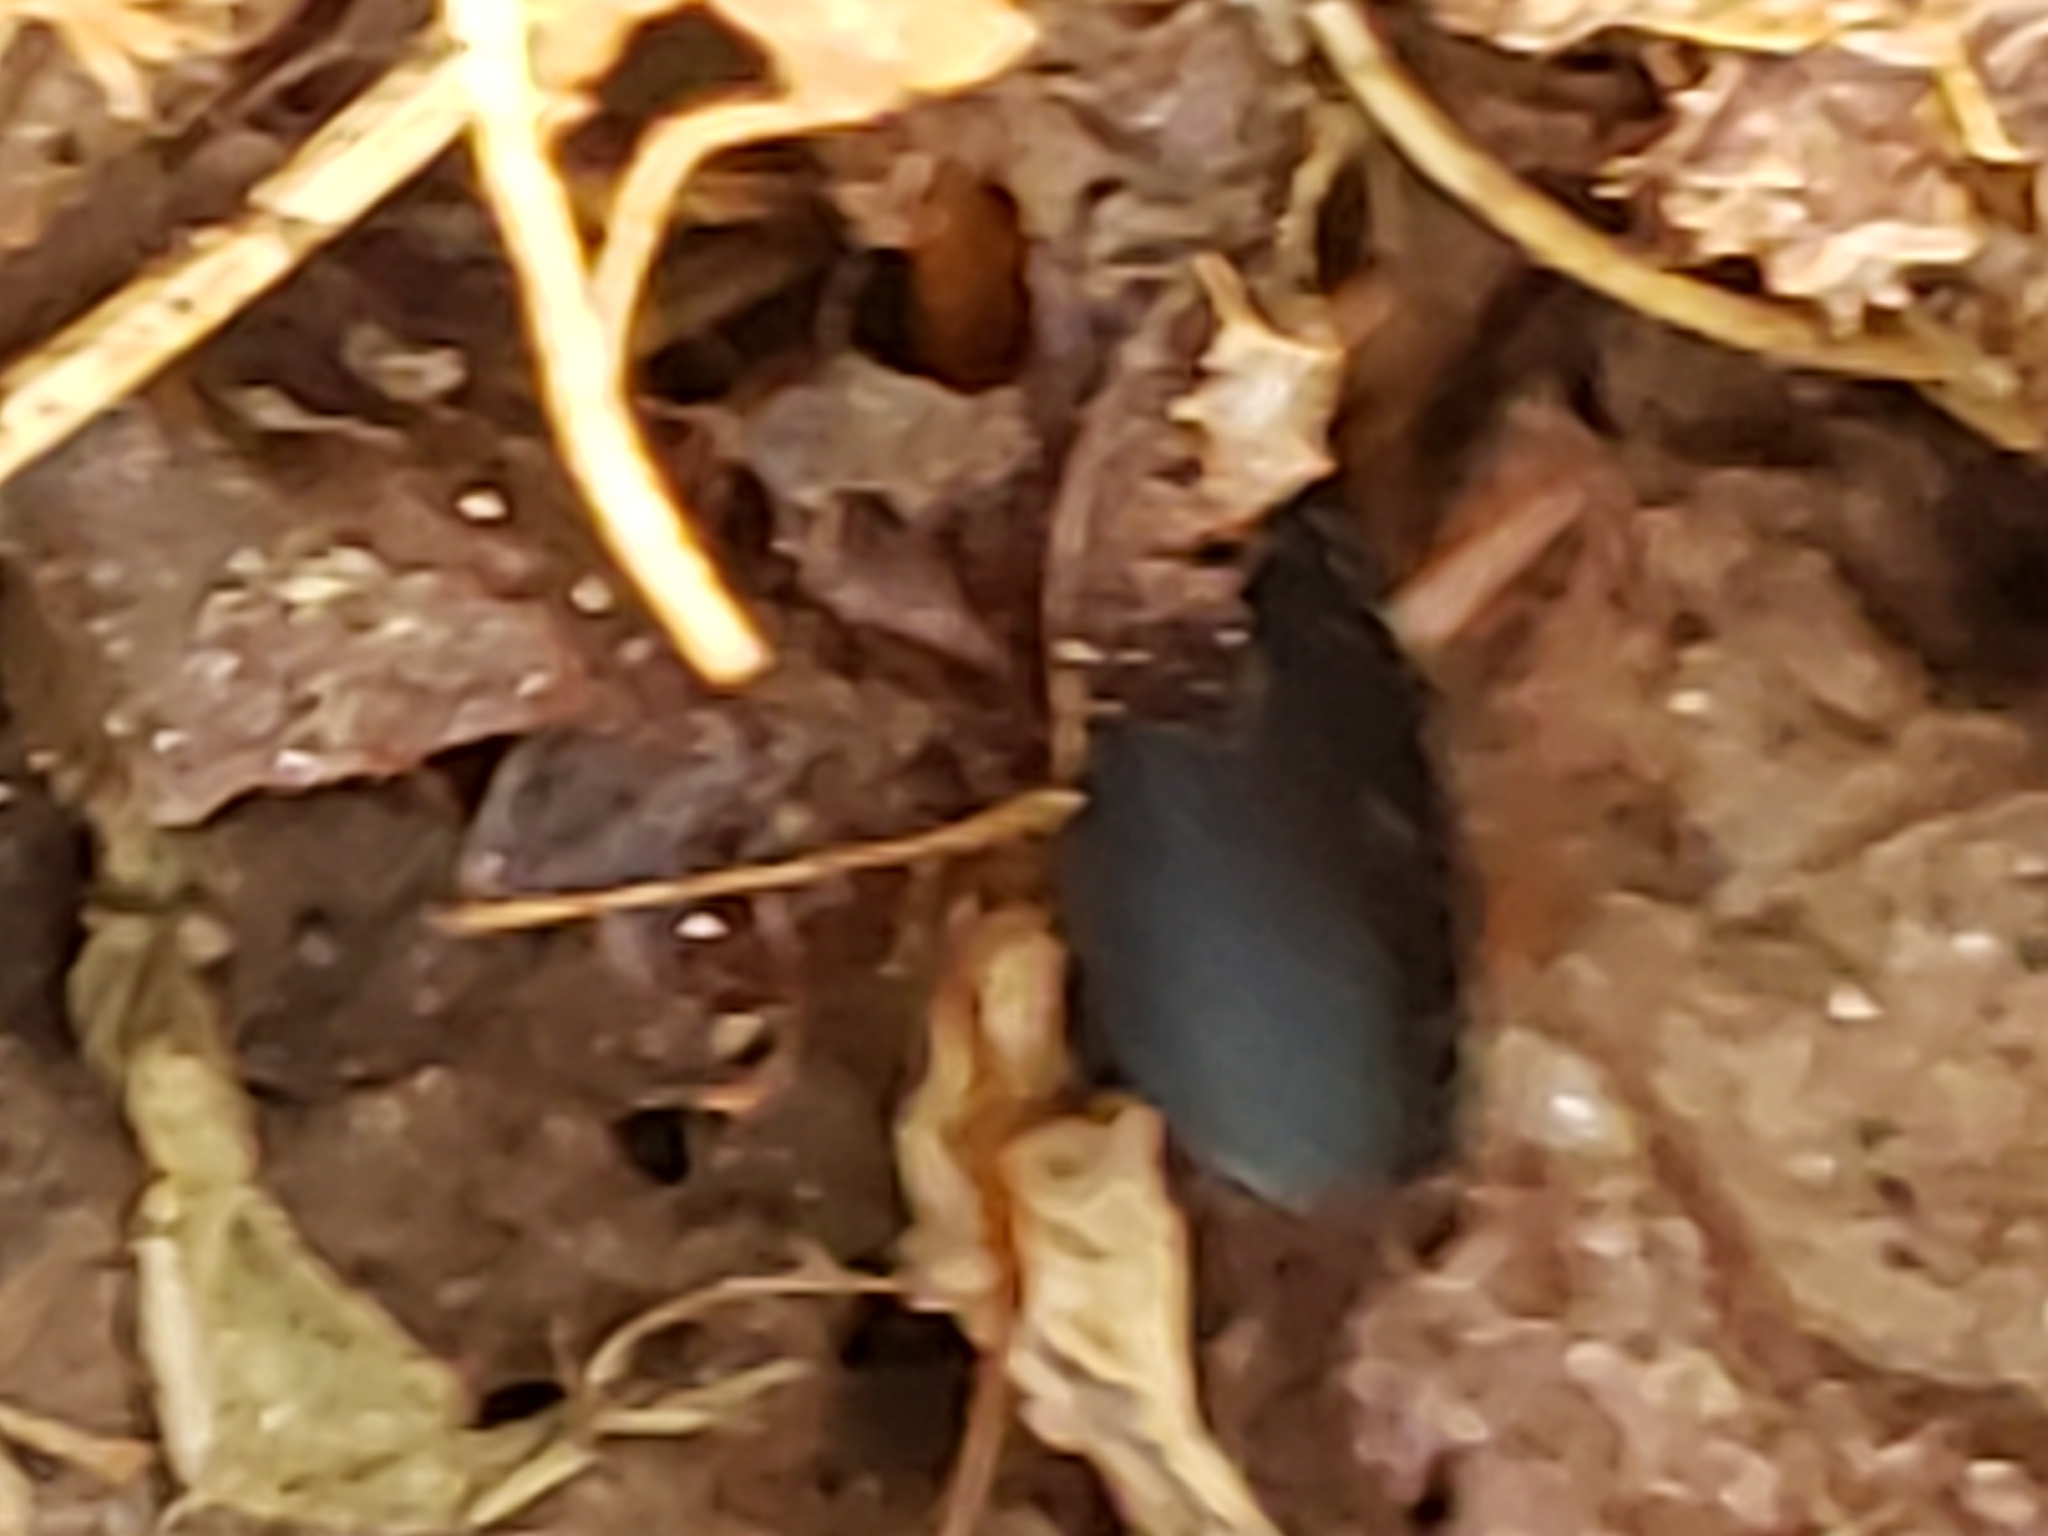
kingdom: Animalia
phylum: Arthropoda
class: Insecta
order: Coleoptera
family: Carabidae
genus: Galerita
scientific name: Galerita bicolor
